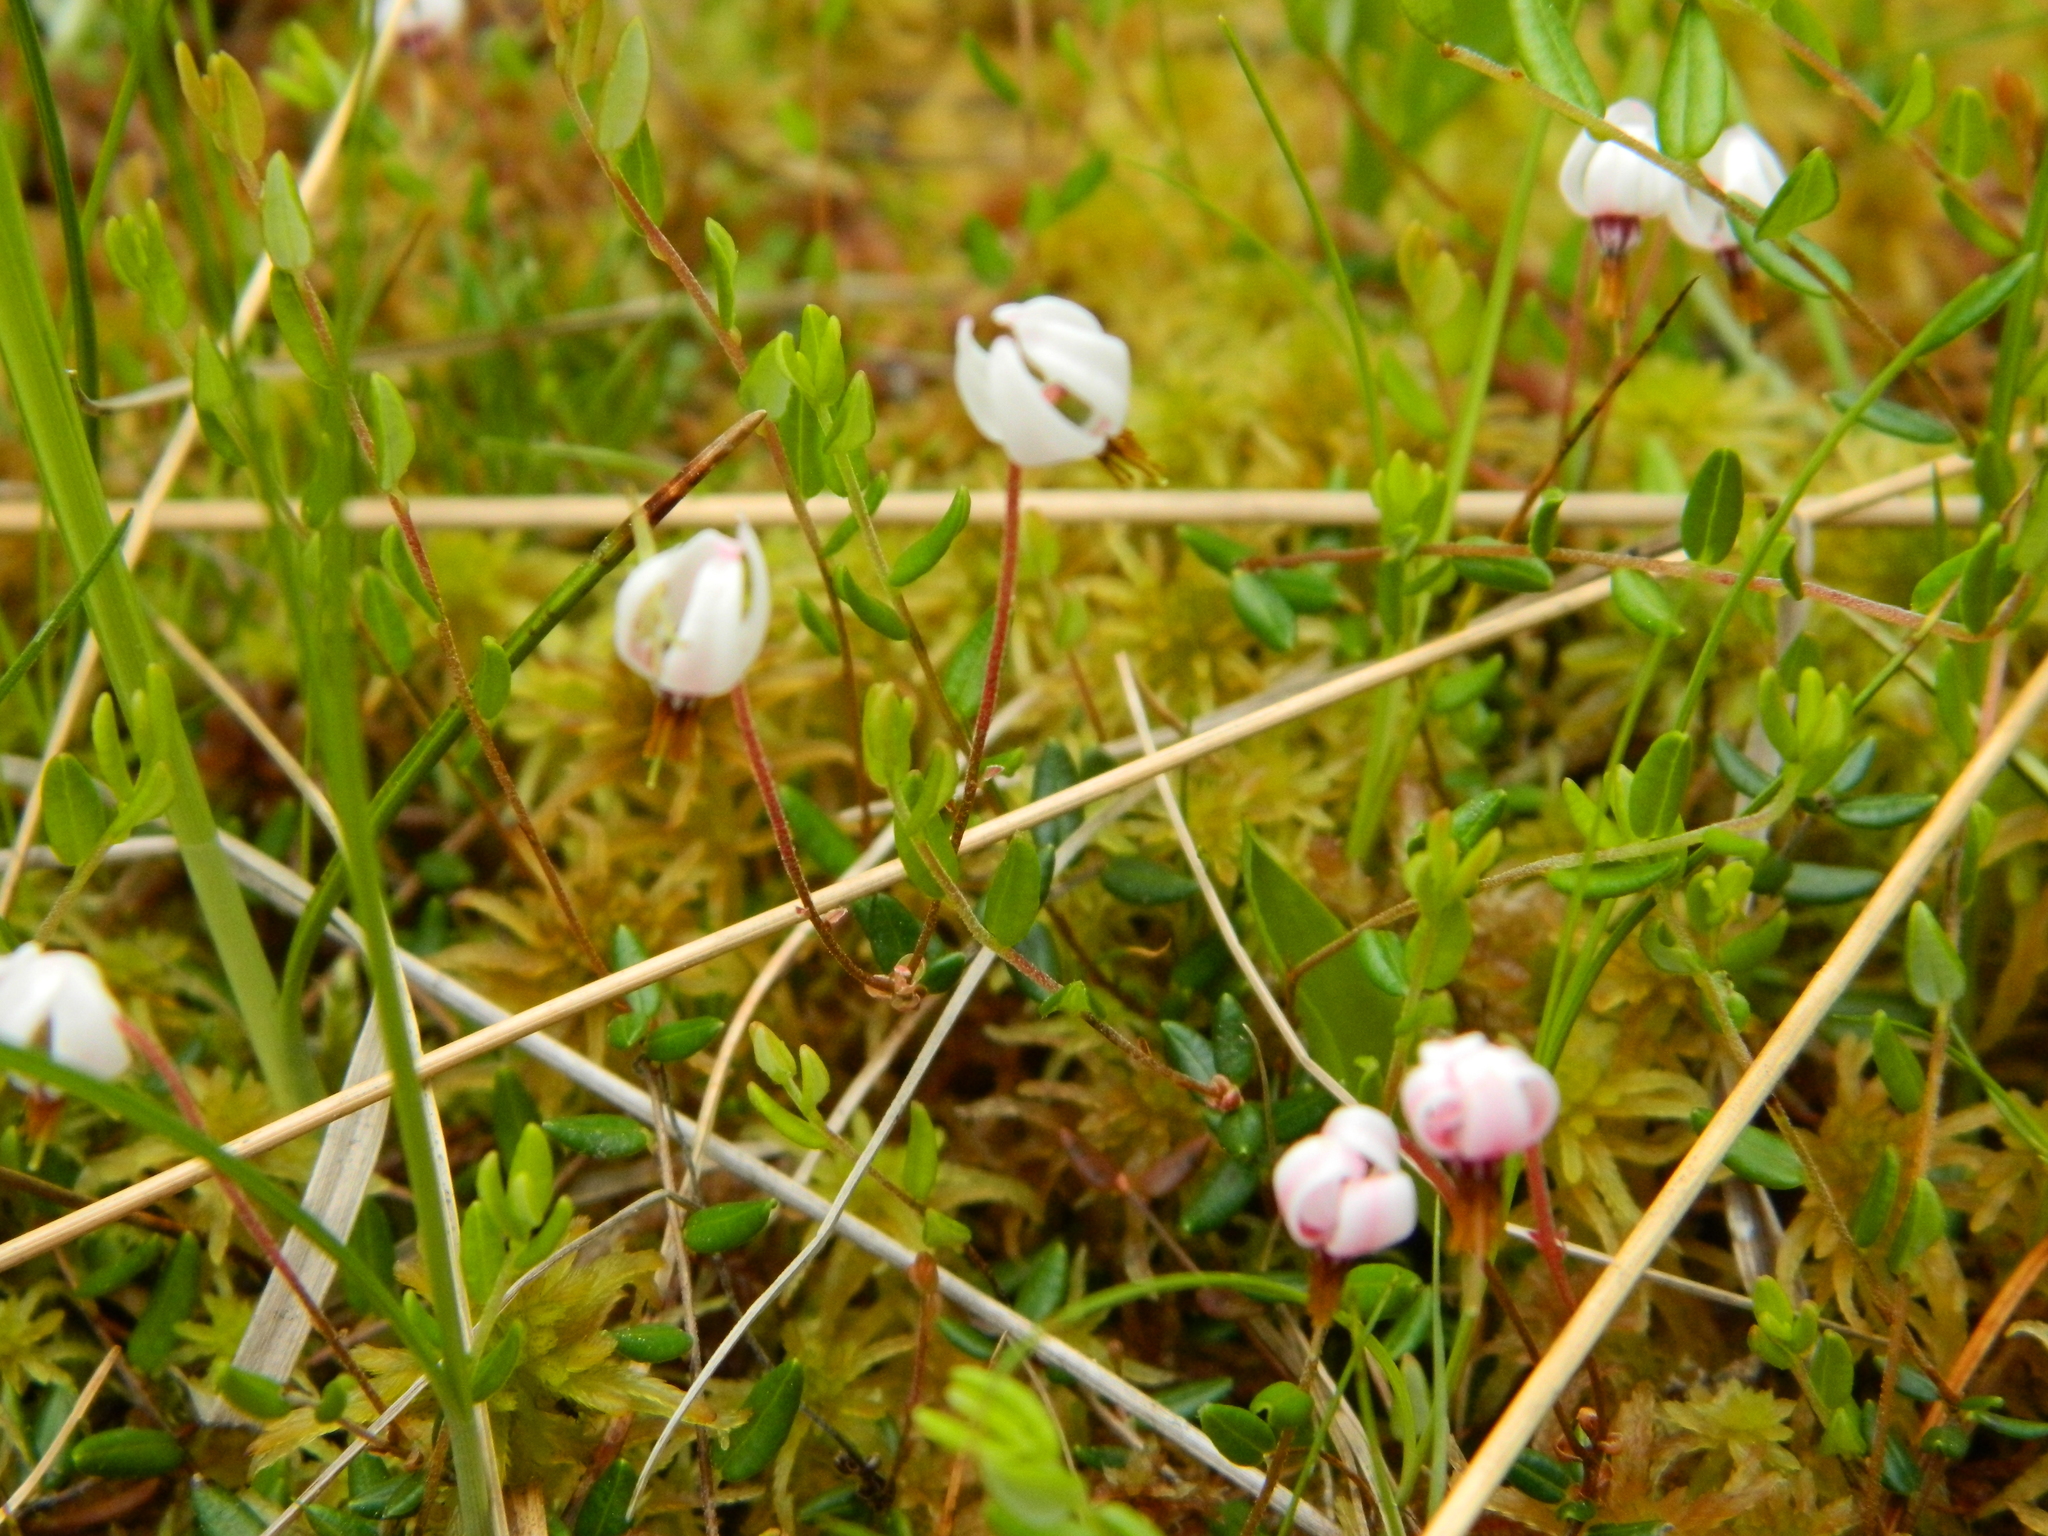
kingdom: Plantae
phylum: Tracheophyta
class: Magnoliopsida
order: Ericales
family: Ericaceae
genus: Vaccinium
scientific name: Vaccinium oxycoccos
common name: Cranberry
